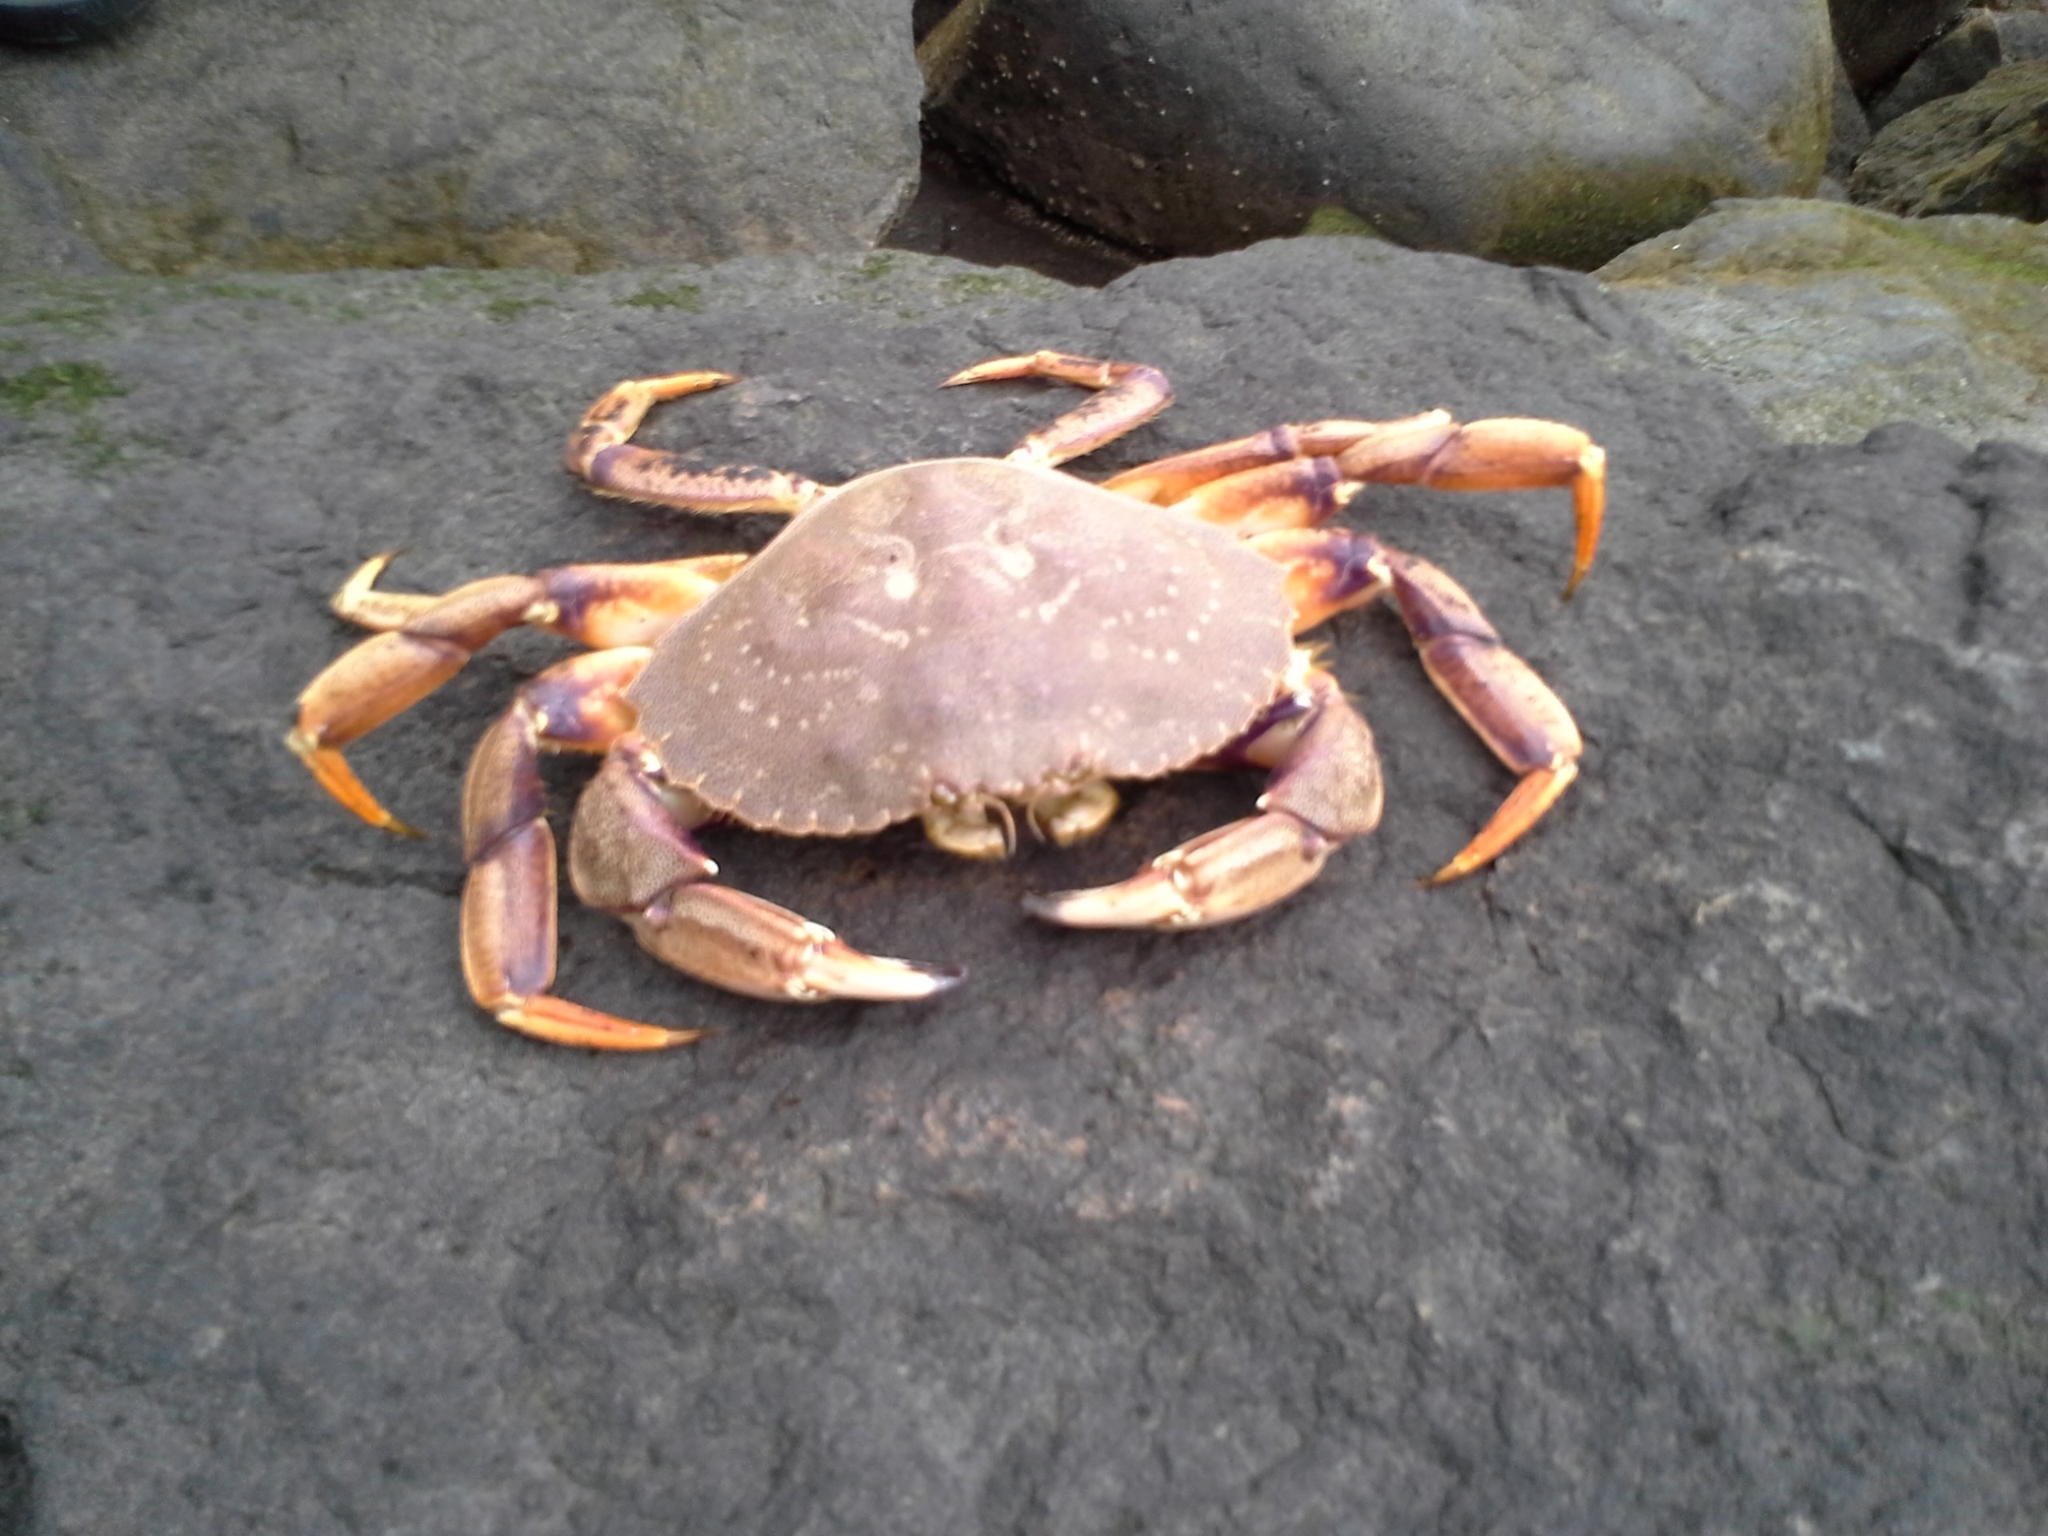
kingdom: Animalia
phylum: Arthropoda
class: Malacostraca
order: Decapoda
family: Cancridae
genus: Cancer
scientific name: Cancer irroratus
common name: Atlantic rock crab
